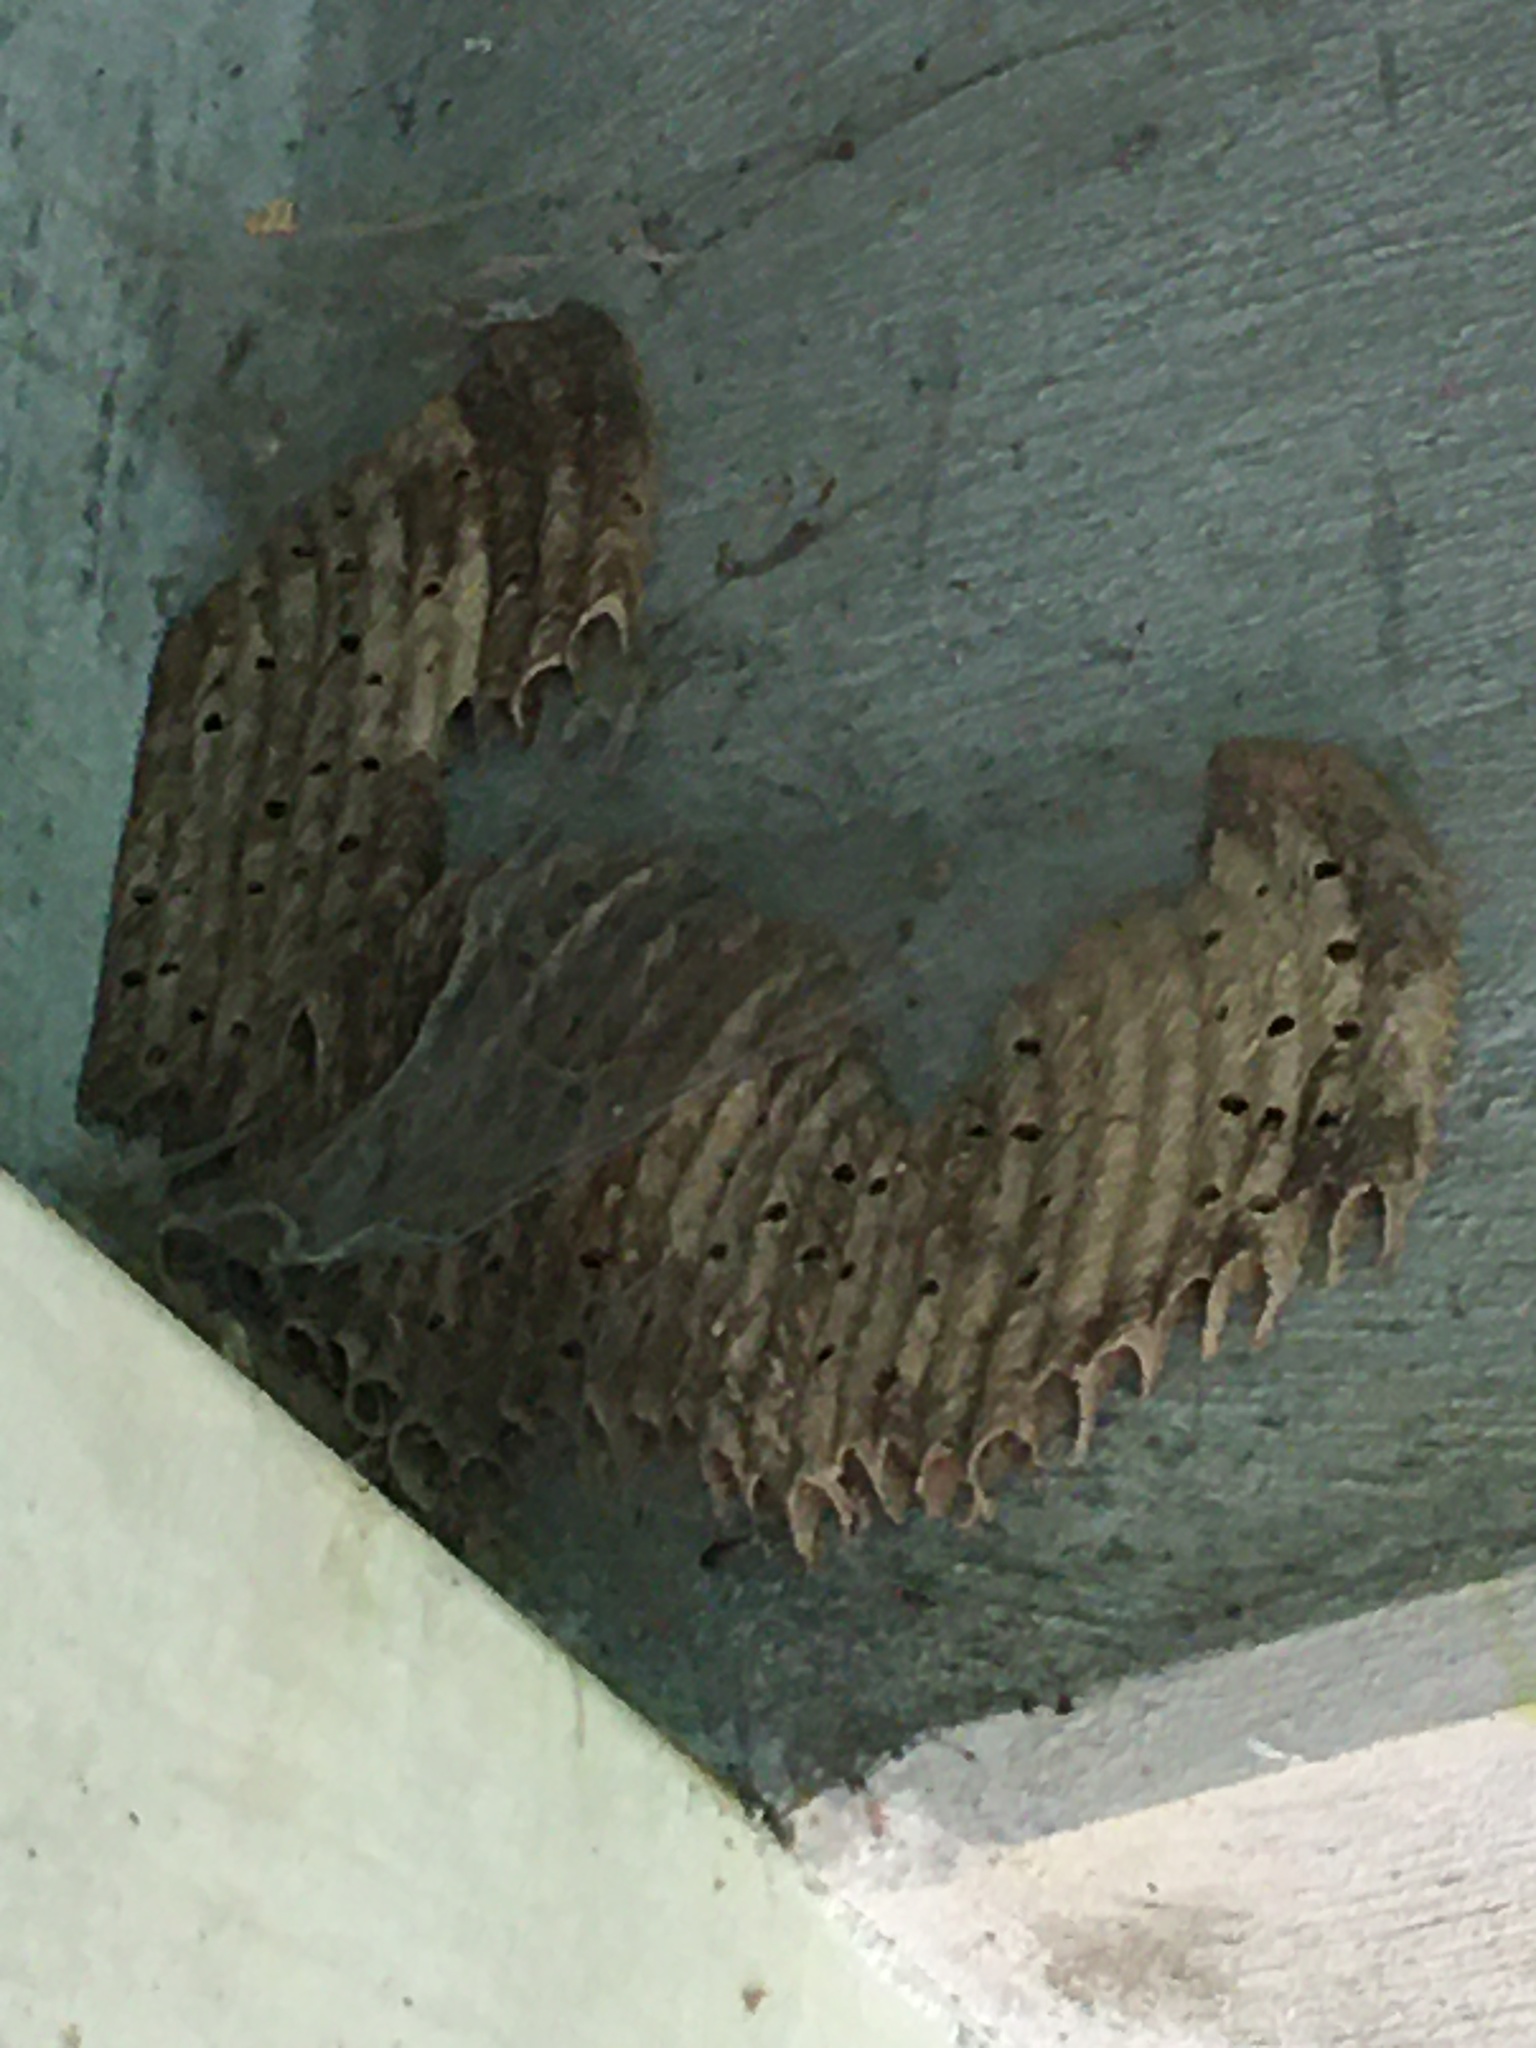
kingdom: Animalia
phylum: Arthropoda
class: Insecta
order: Hymenoptera
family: Crabronidae
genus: Trypoxylon
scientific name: Trypoxylon politum
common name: Organ-pipe mud-dauber wasp
